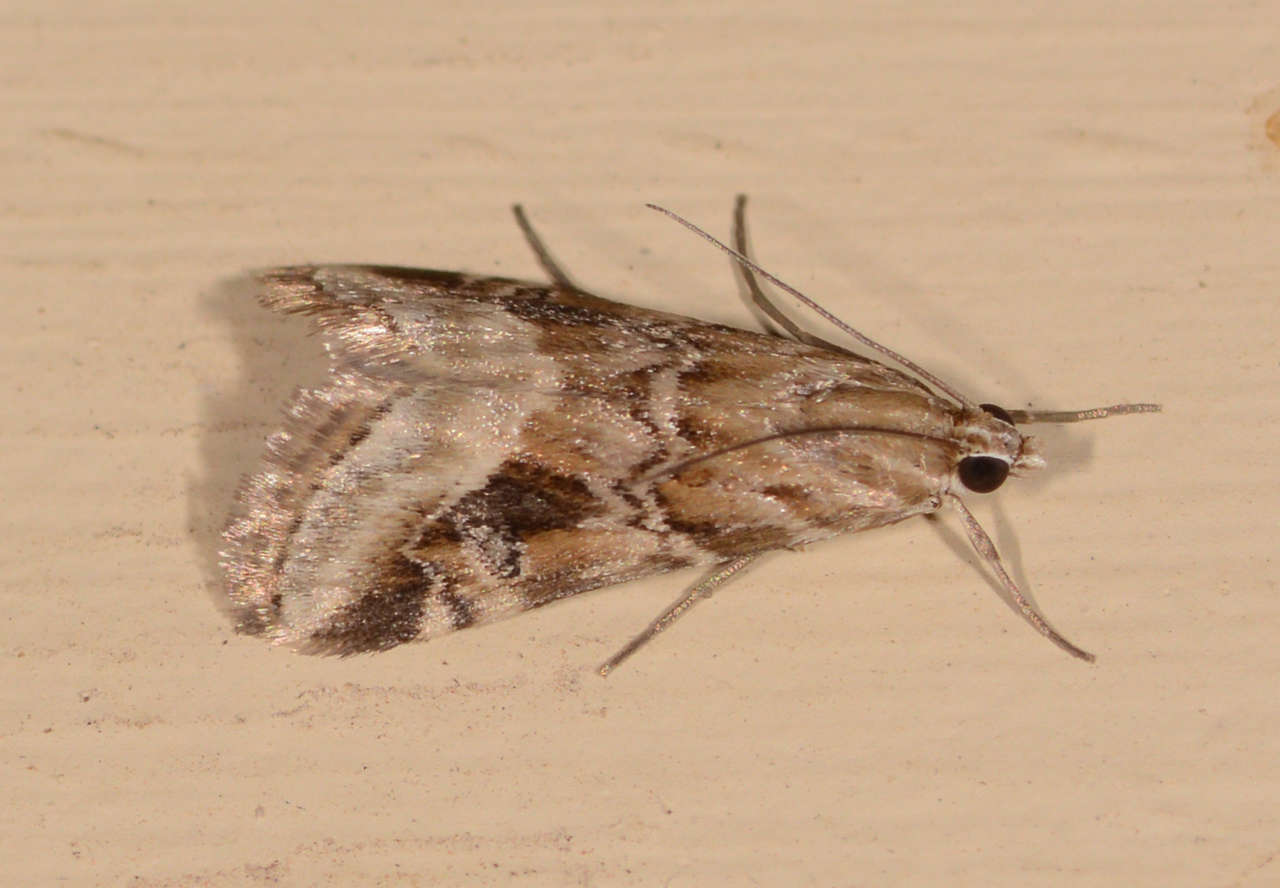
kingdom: Animalia
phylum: Arthropoda
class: Insecta
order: Lepidoptera
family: Crambidae
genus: Hellula
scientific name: Hellula hydralis
